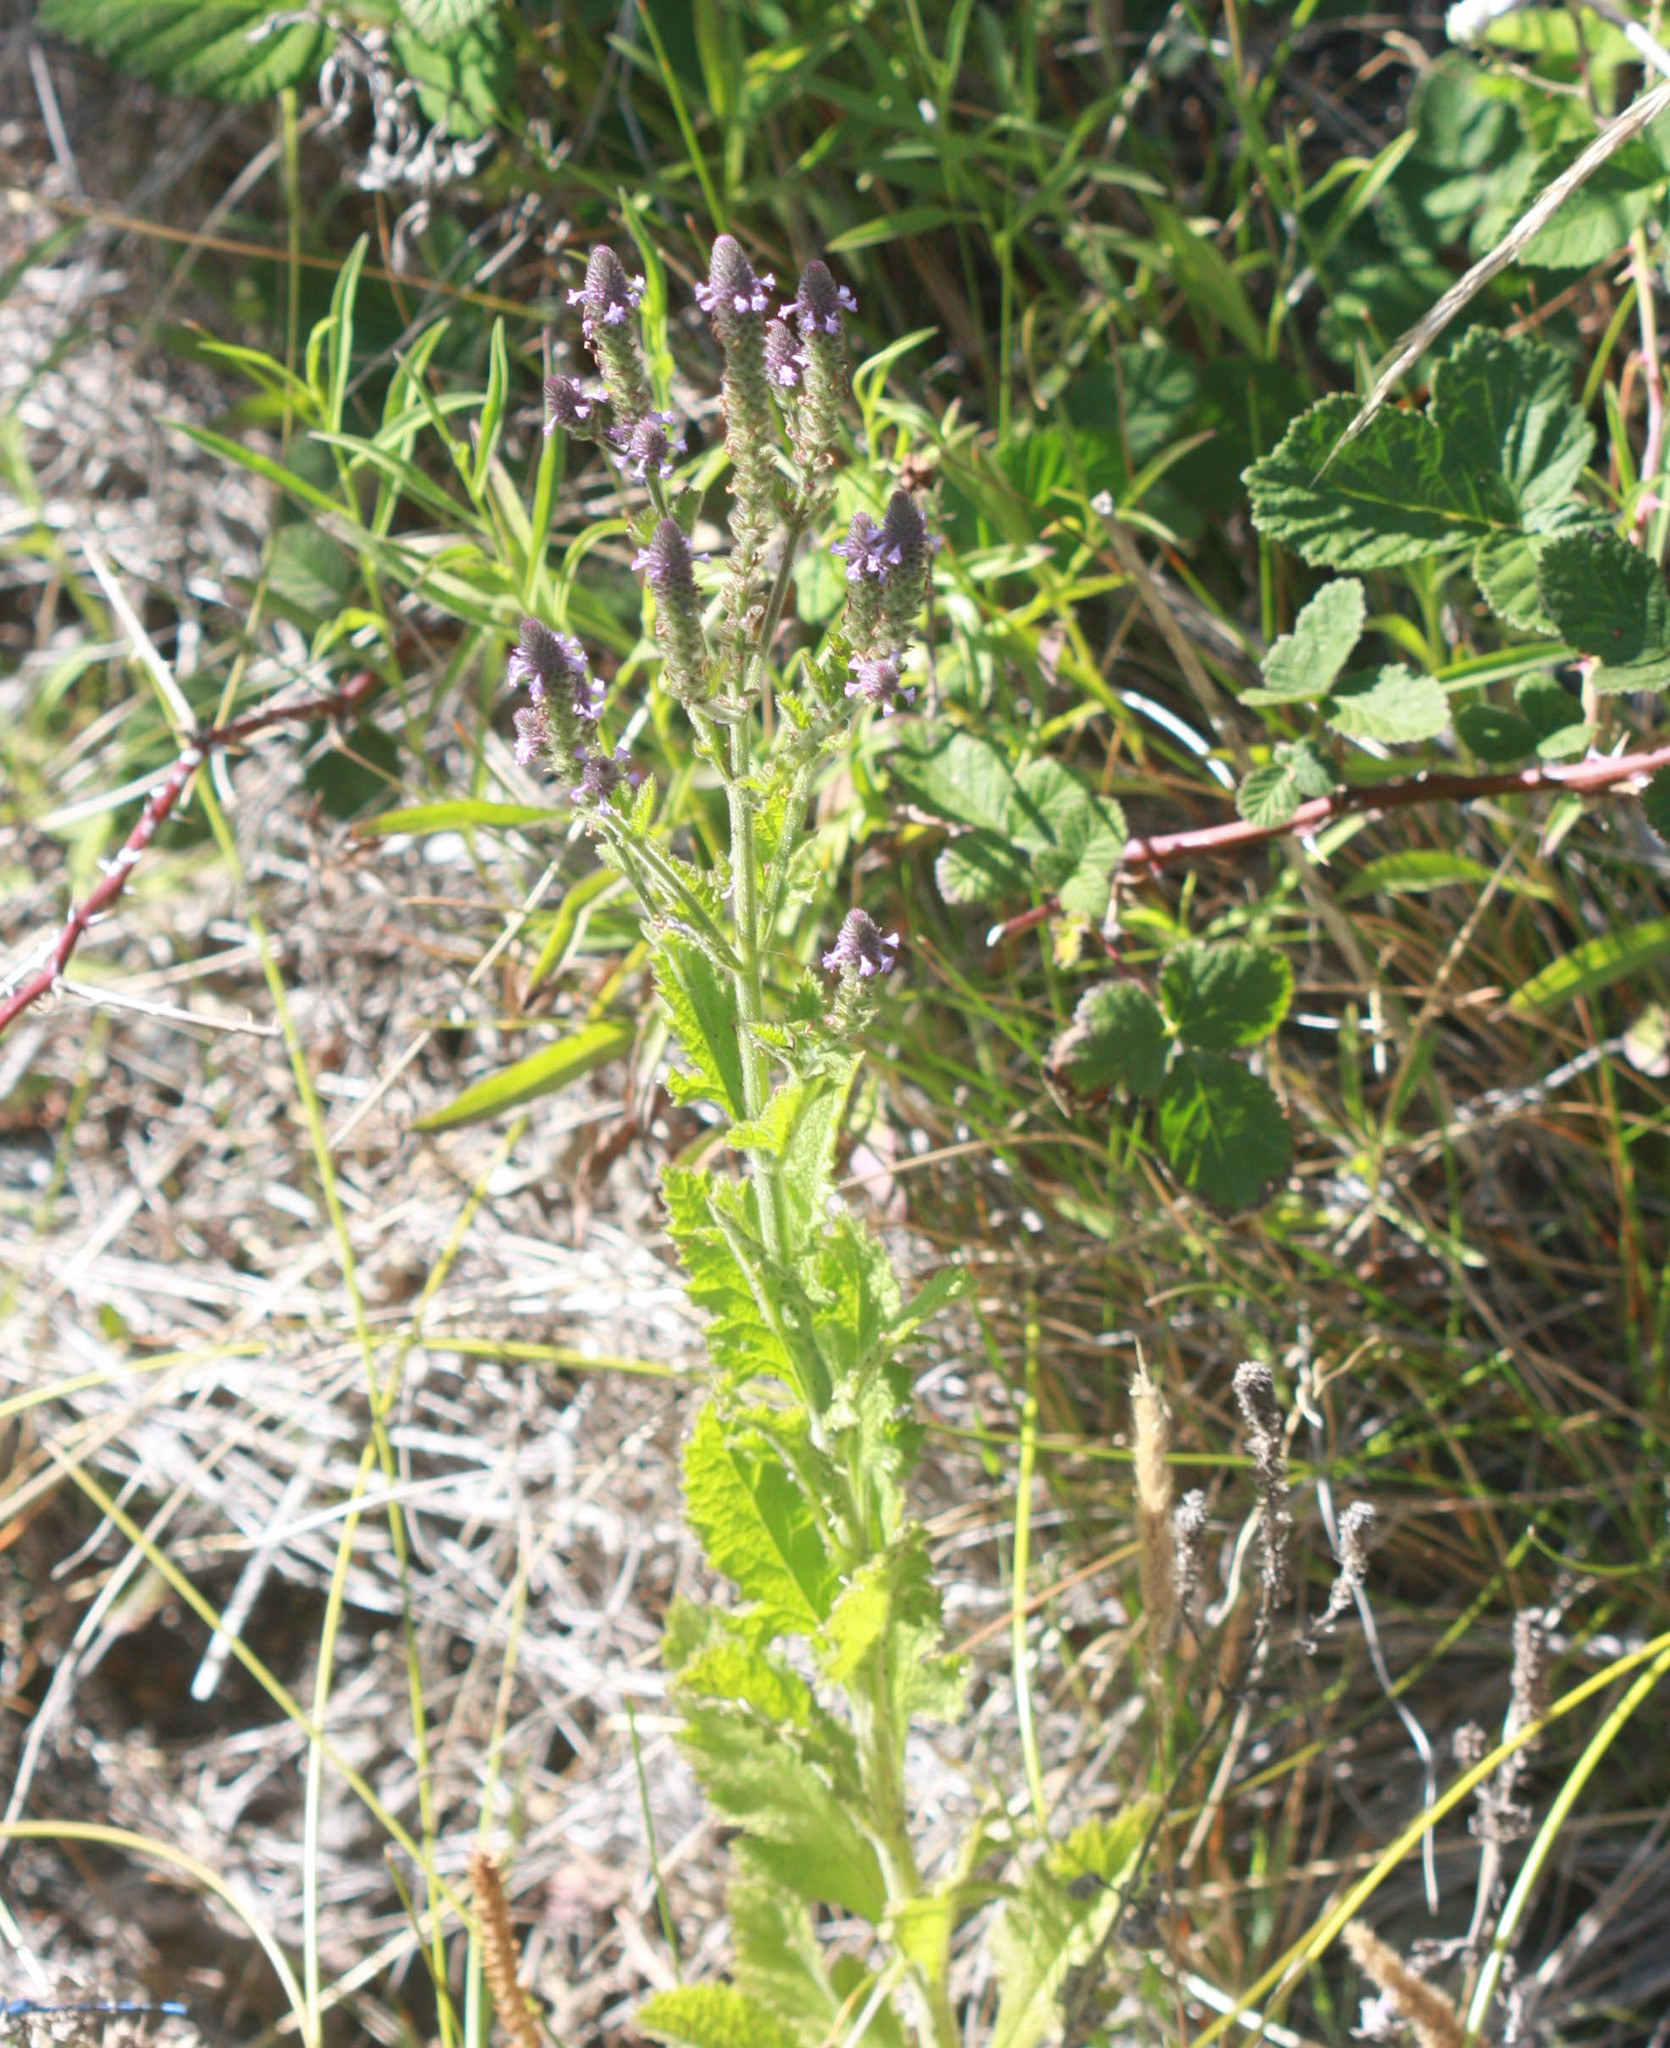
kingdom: Plantae
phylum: Tracheophyta
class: Magnoliopsida
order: Lamiales
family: Verbenaceae
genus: Verbena
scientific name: Verbena lasiostachys
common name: Vervain
